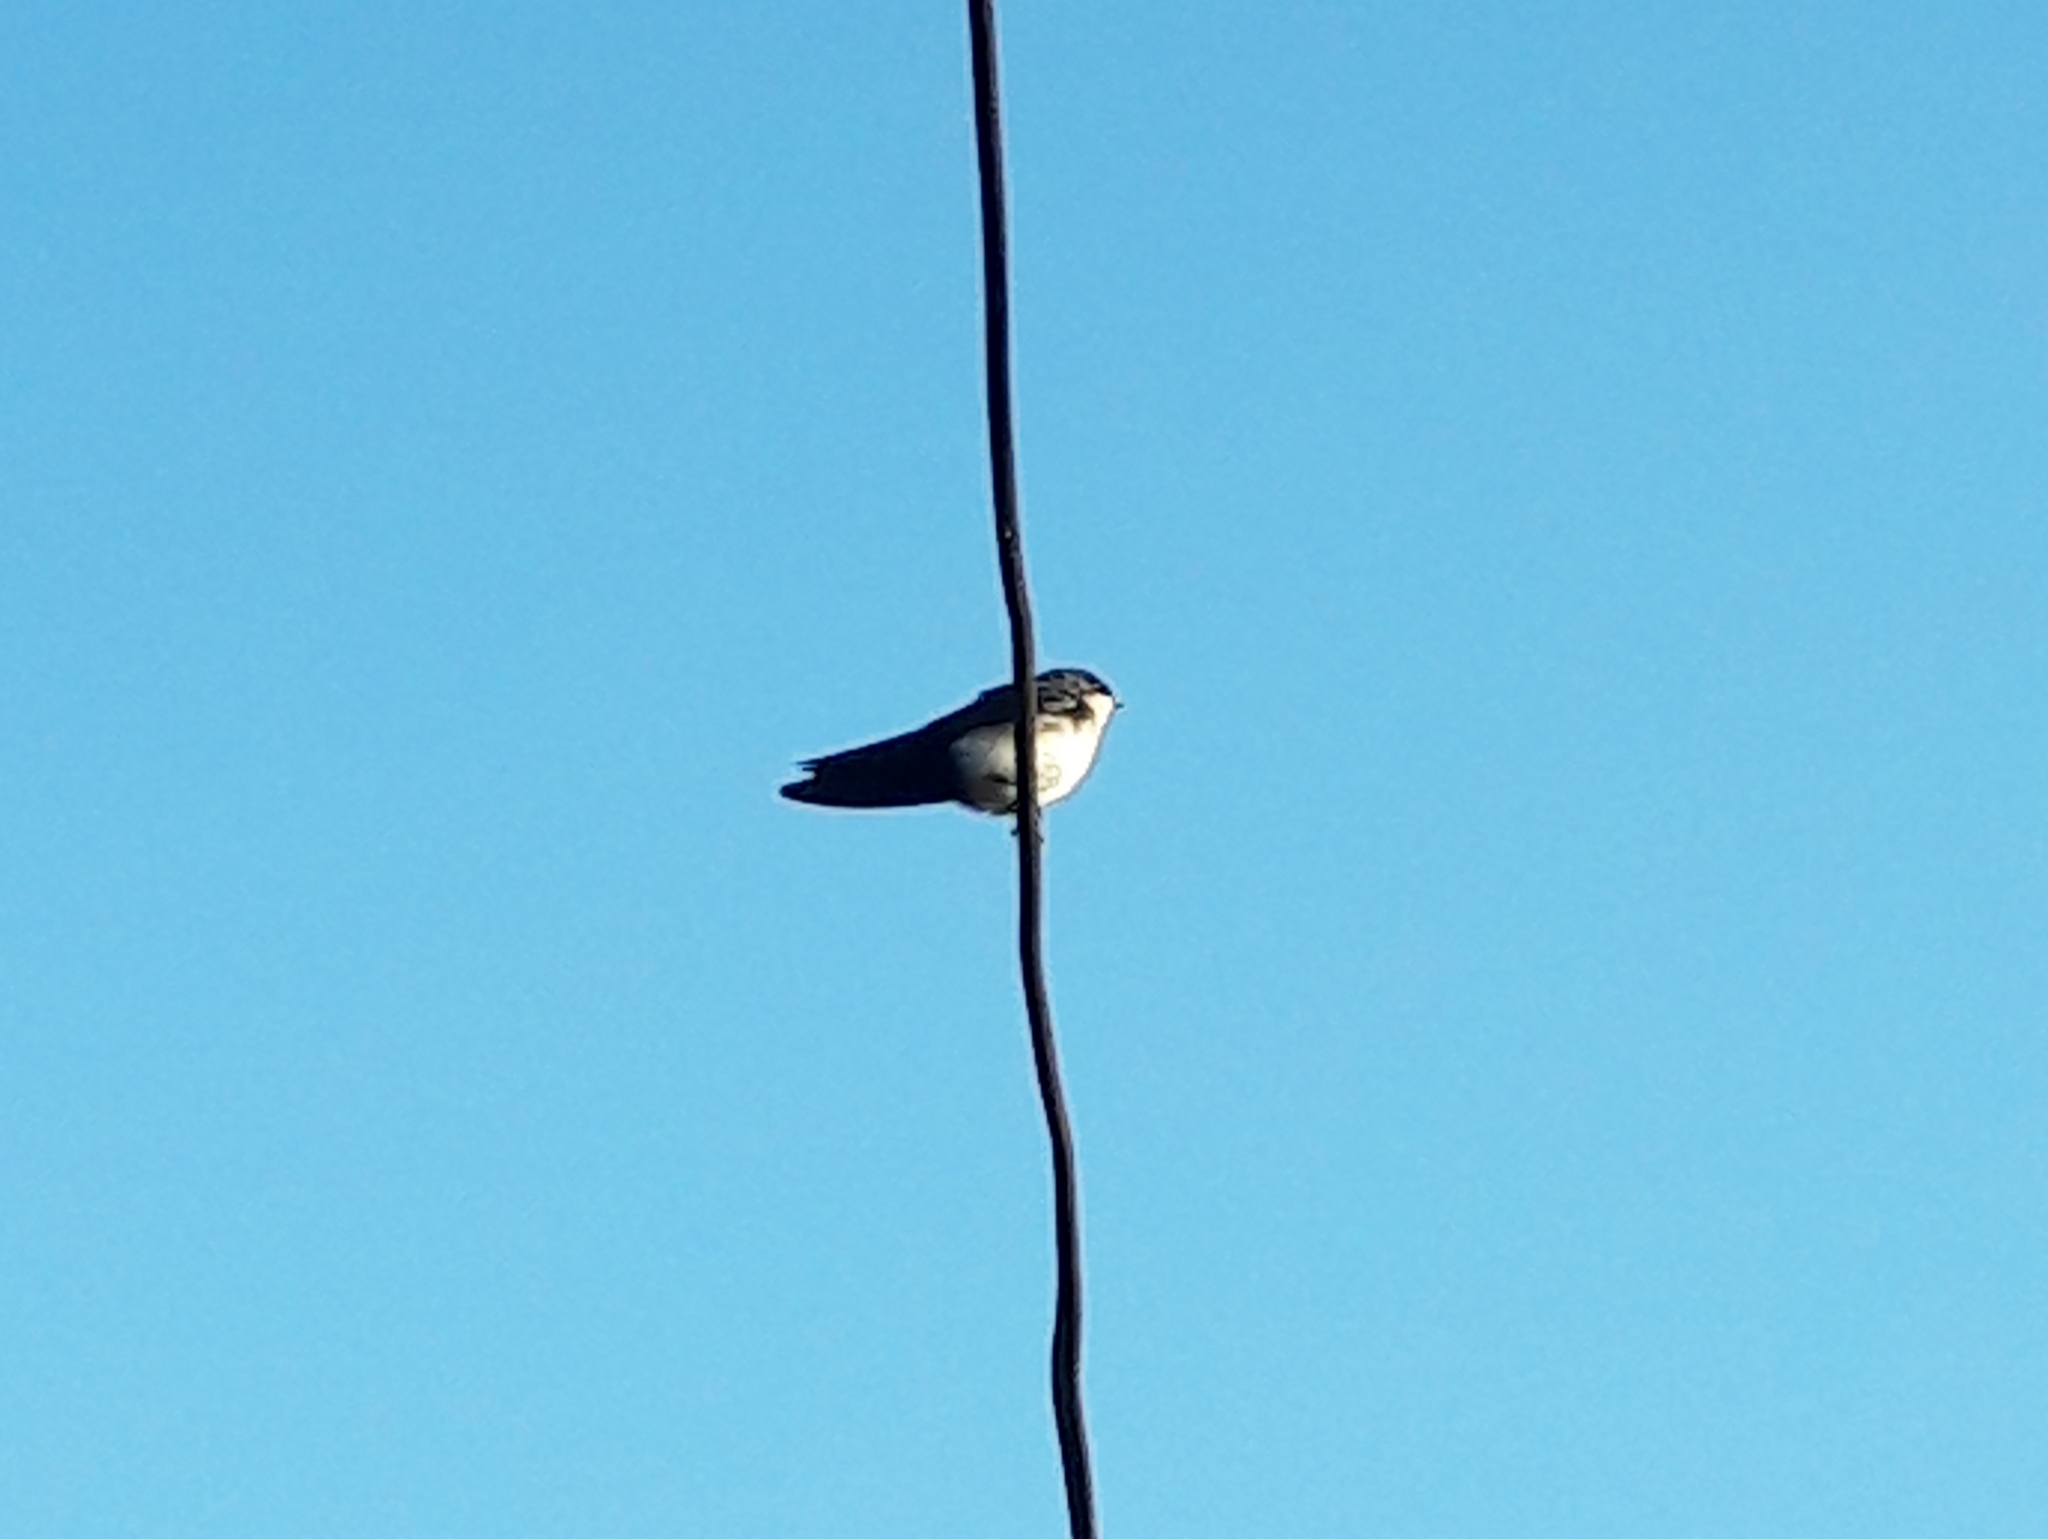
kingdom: Animalia
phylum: Chordata
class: Aves
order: Passeriformes
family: Hirundinidae
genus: Notiochelidon
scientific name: Notiochelidon cyanoleuca
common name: Blue-and-white swallow
